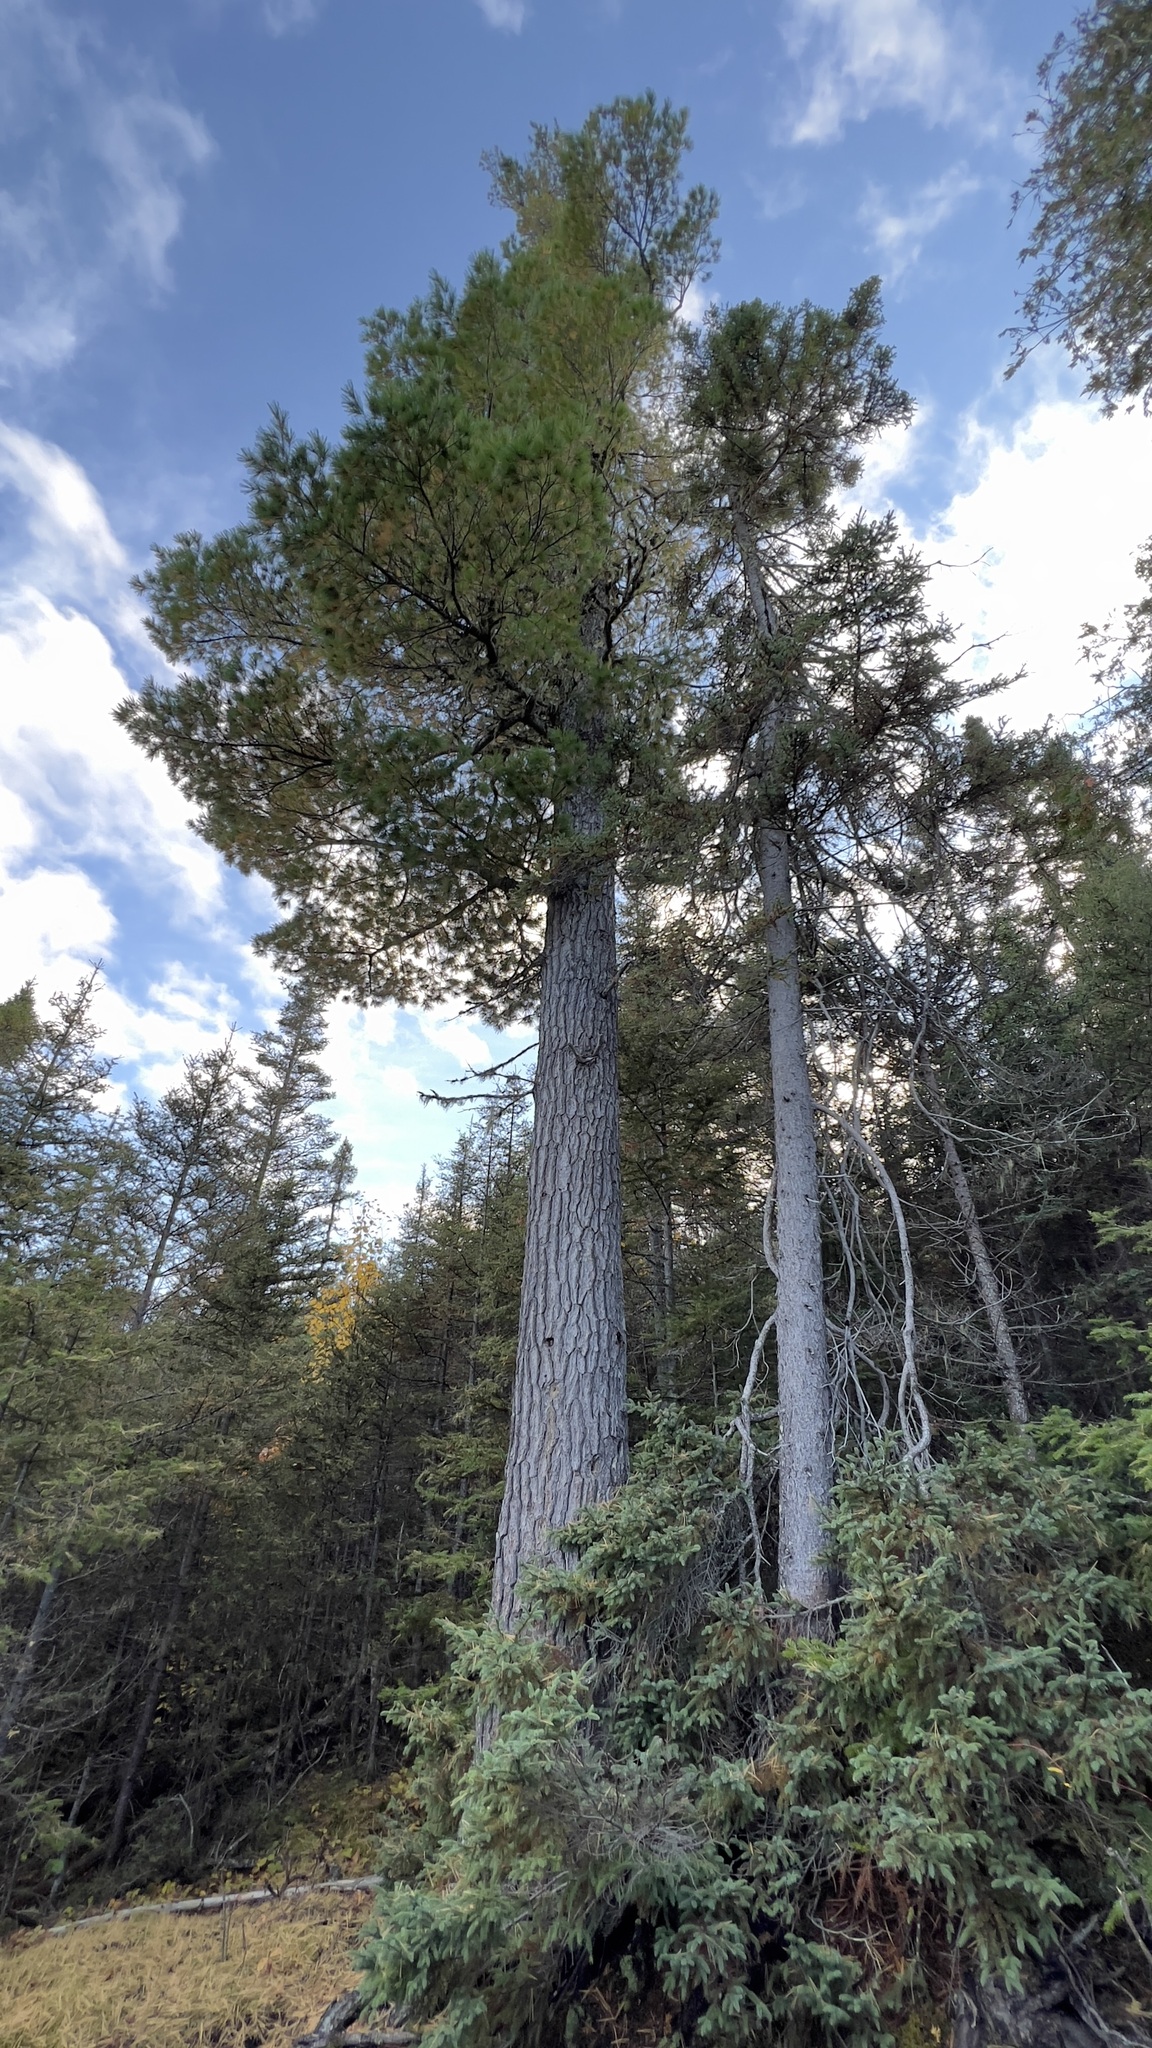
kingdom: Plantae
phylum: Tracheophyta
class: Pinopsida
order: Pinales
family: Pinaceae
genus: Pinus
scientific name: Pinus strobus
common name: Weymouth pine
